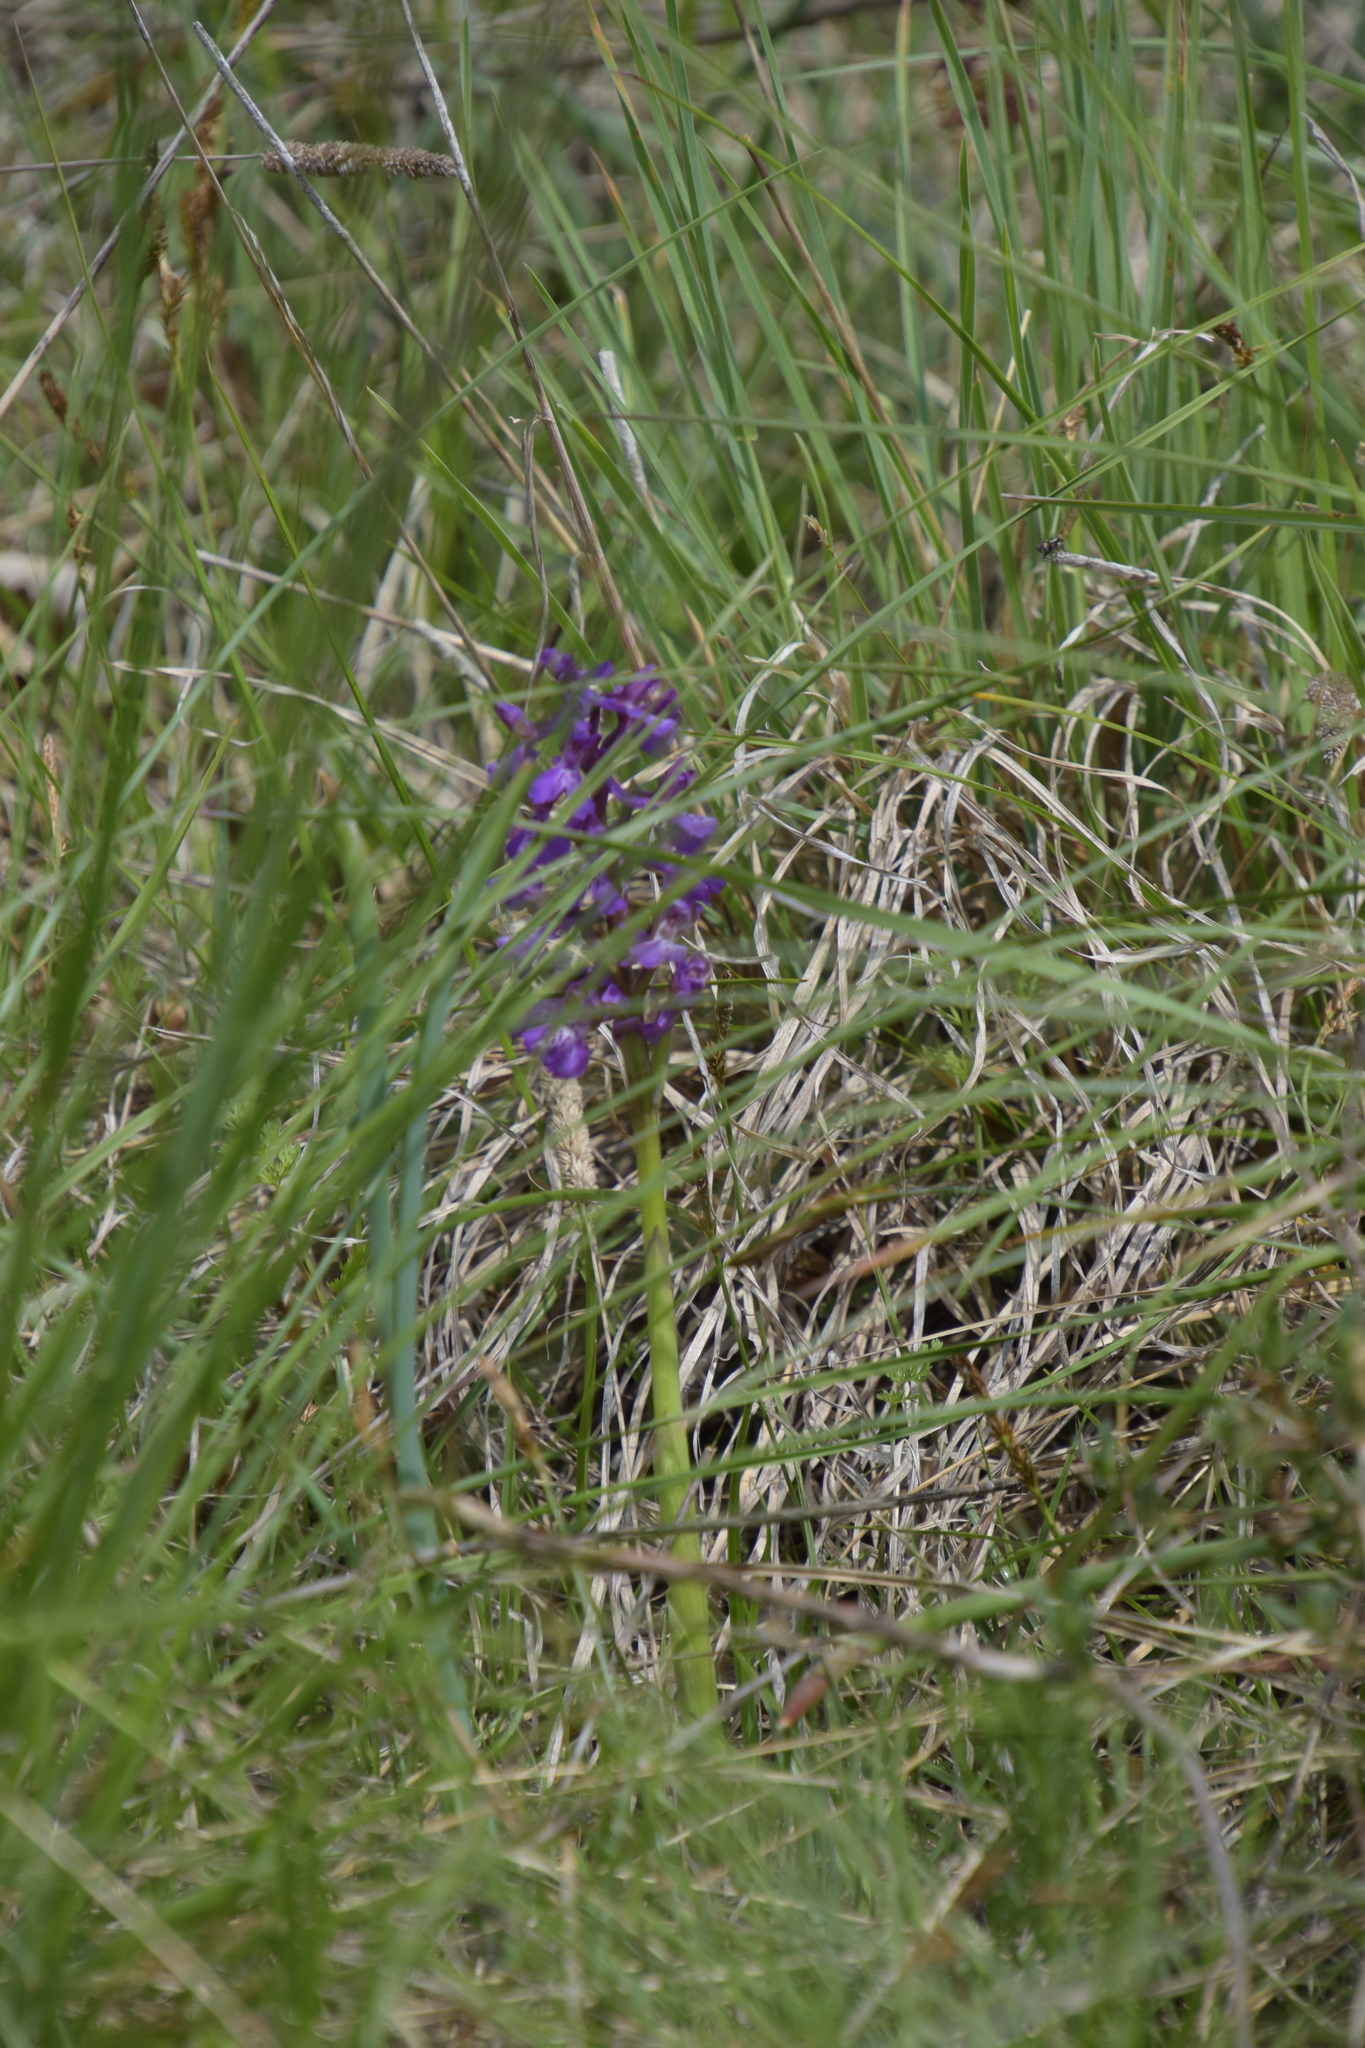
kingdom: Plantae
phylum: Tracheophyta
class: Liliopsida
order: Asparagales
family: Orchidaceae
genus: Anacamptis
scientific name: Anacamptis morio
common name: Green-winged orchid
